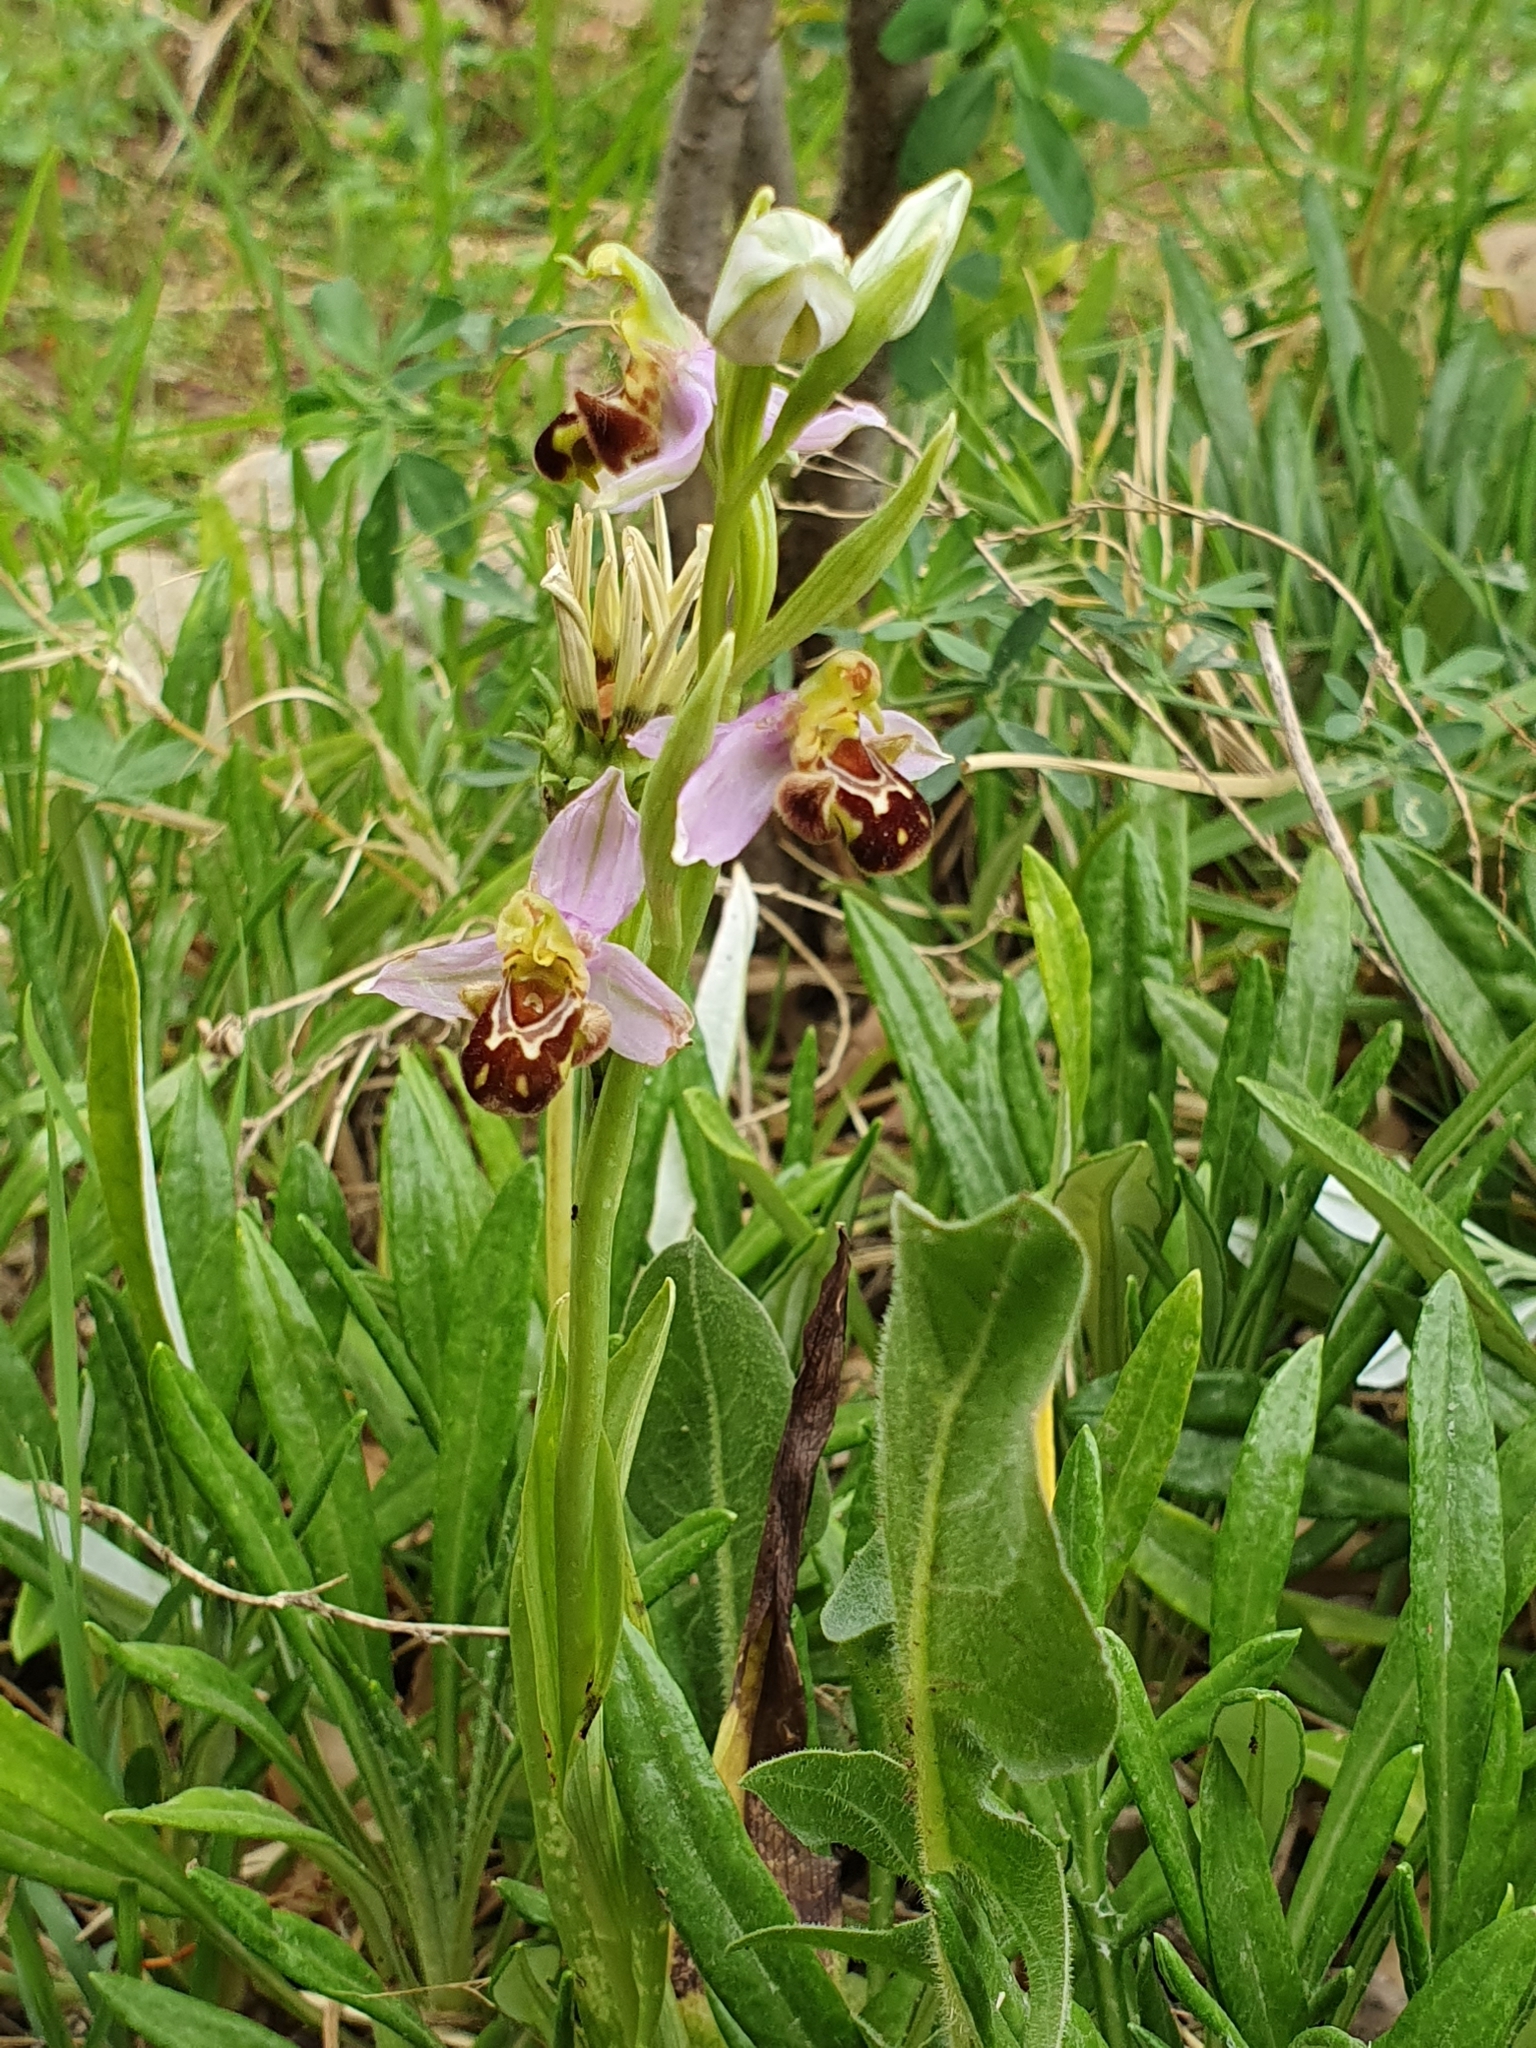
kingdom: Plantae
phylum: Tracheophyta
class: Liliopsida
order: Asparagales
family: Orchidaceae
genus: Ophrys
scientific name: Ophrys apifera
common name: Bee orchid
